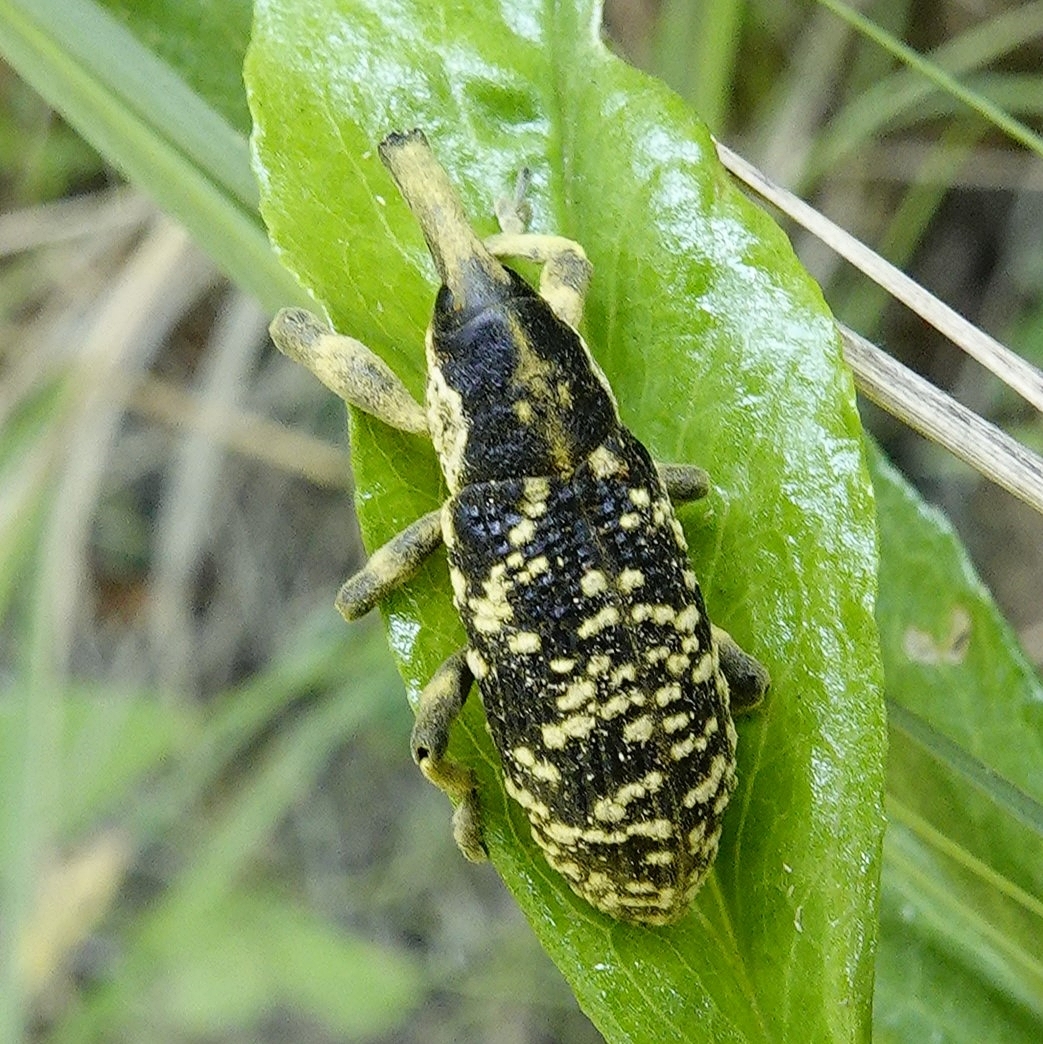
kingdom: Animalia
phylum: Arthropoda
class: Insecta
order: Coleoptera
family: Curculionidae
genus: Lixus
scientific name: Lixus sturmii
